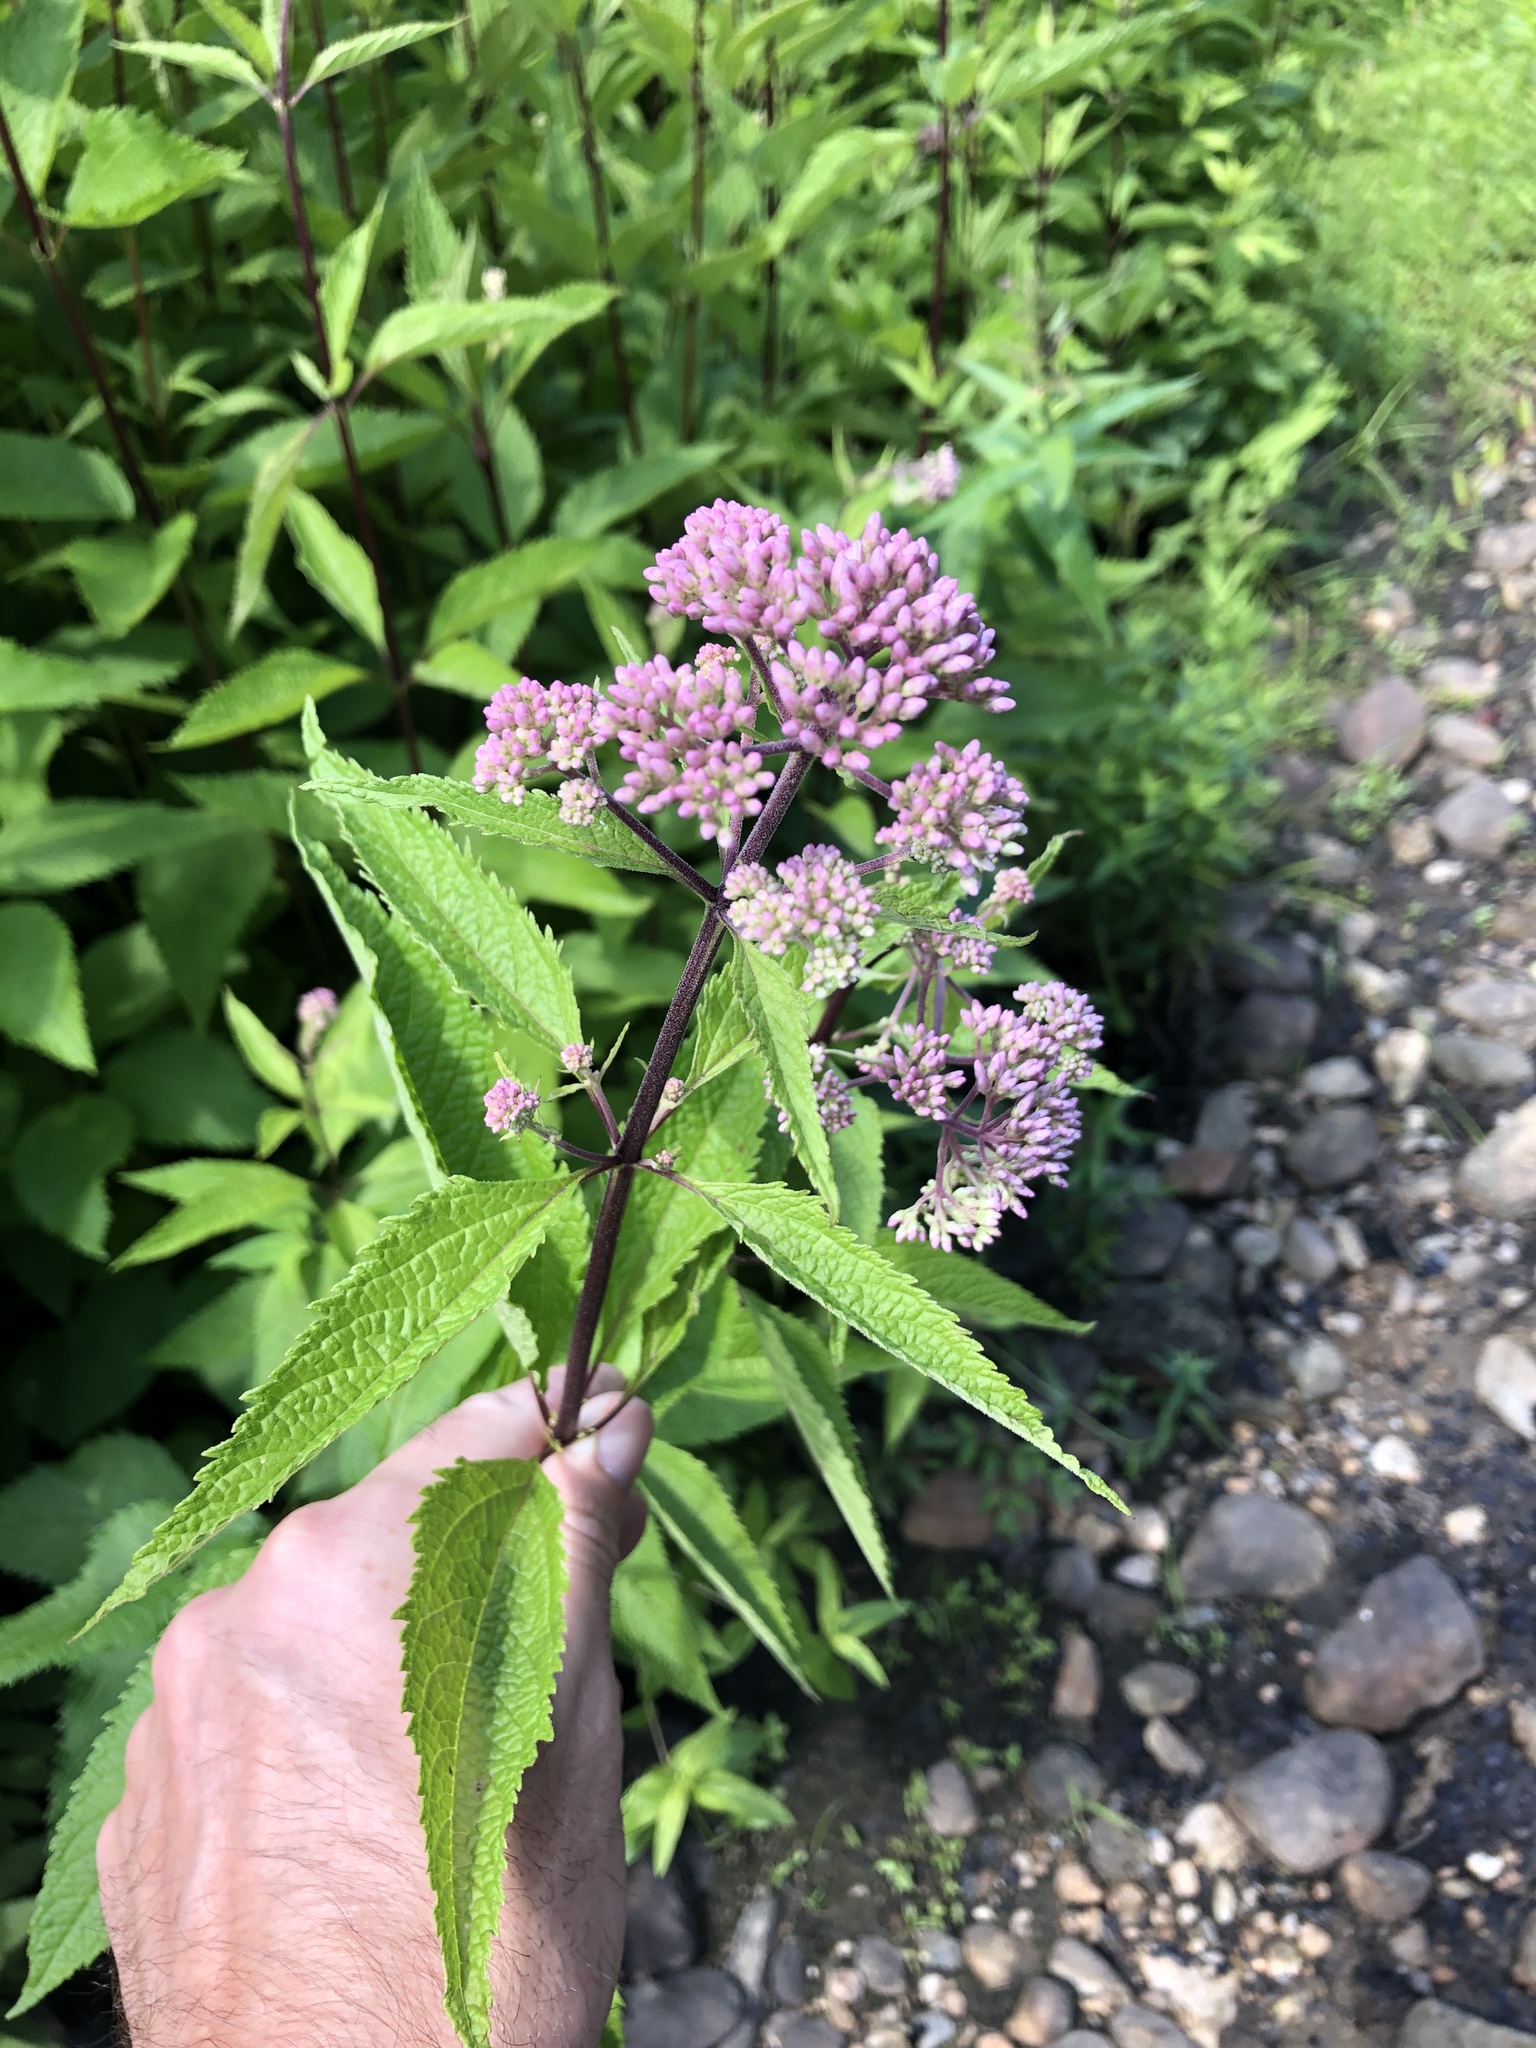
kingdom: Plantae
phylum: Tracheophyta
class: Magnoliopsida
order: Asterales
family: Asteraceae
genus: Eutrochium
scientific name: Eutrochium maculatum
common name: Spotted joe pye weed
